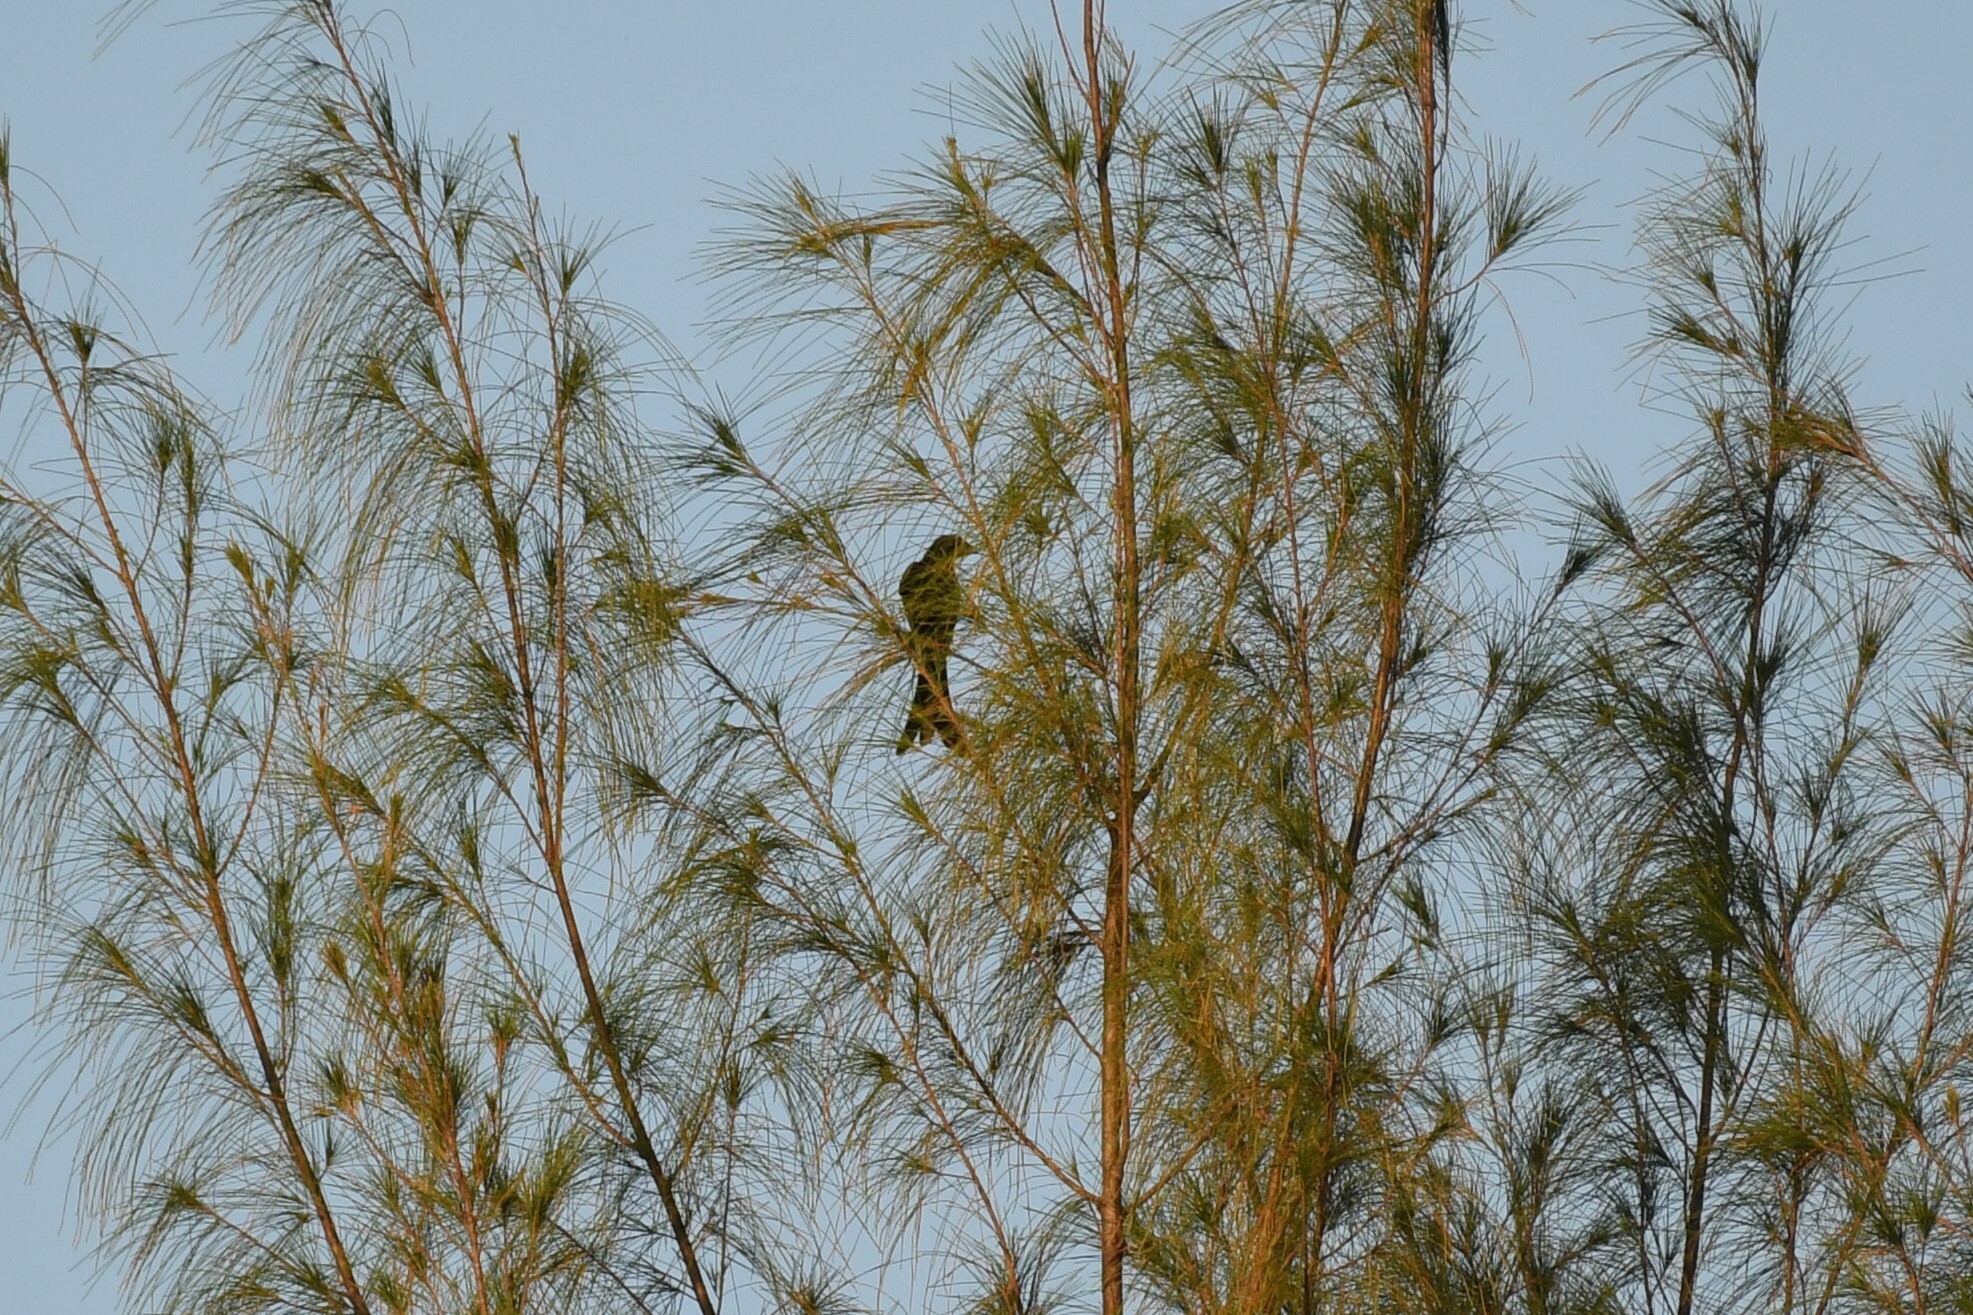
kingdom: Animalia
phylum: Chordata
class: Aves
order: Passeriformes
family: Dicruridae
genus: Dicrurus
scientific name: Dicrurus macrocercus
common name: Black drongo
